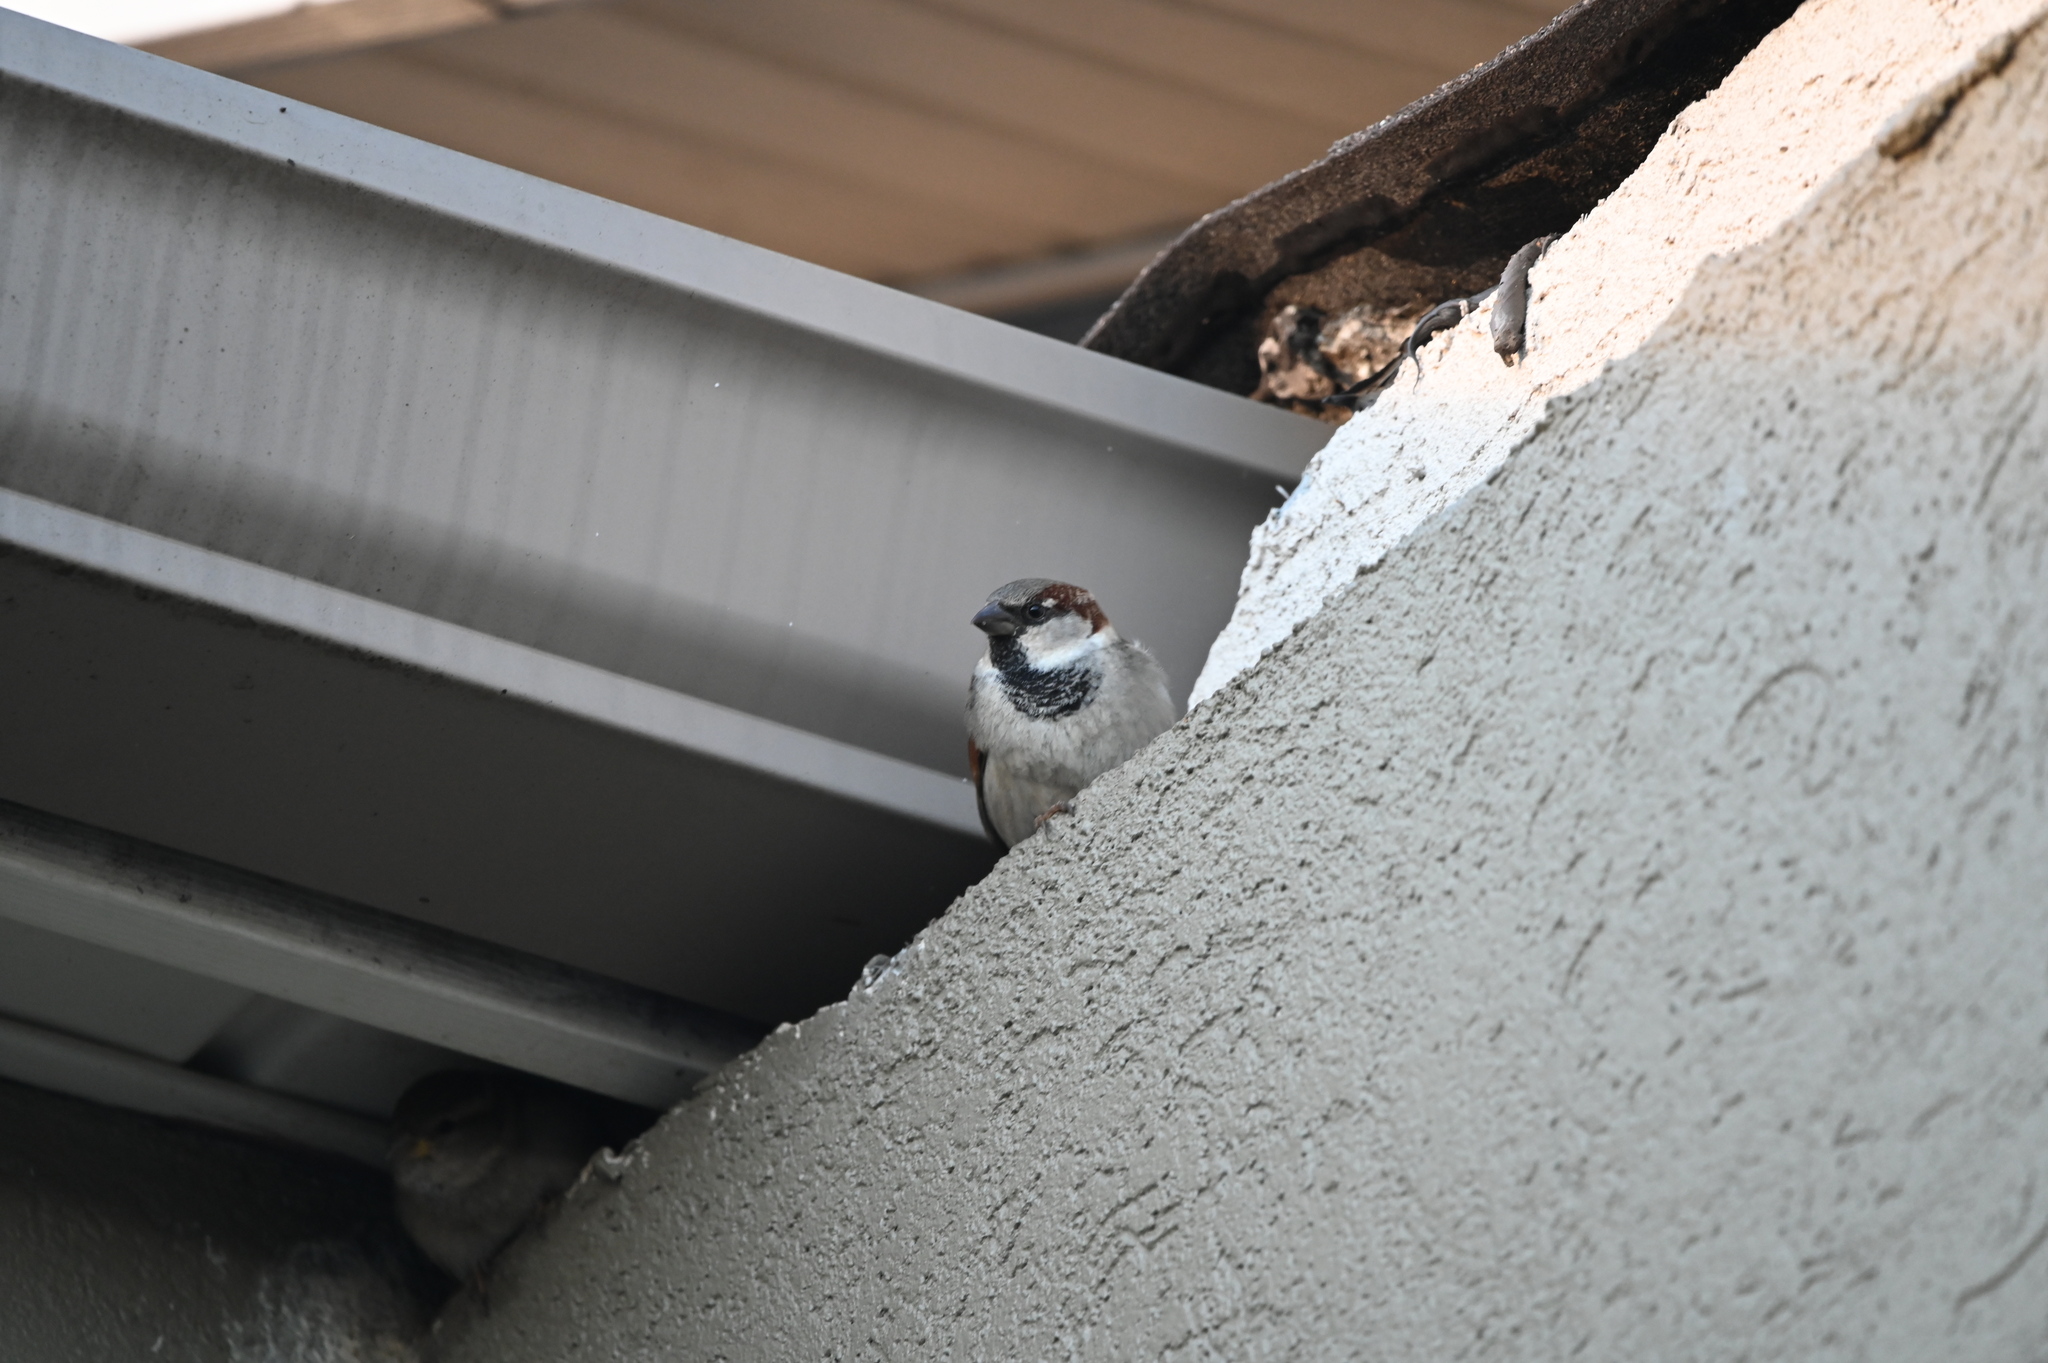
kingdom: Animalia
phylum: Chordata
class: Aves
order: Passeriformes
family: Passeridae
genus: Passer
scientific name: Passer domesticus
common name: House sparrow
